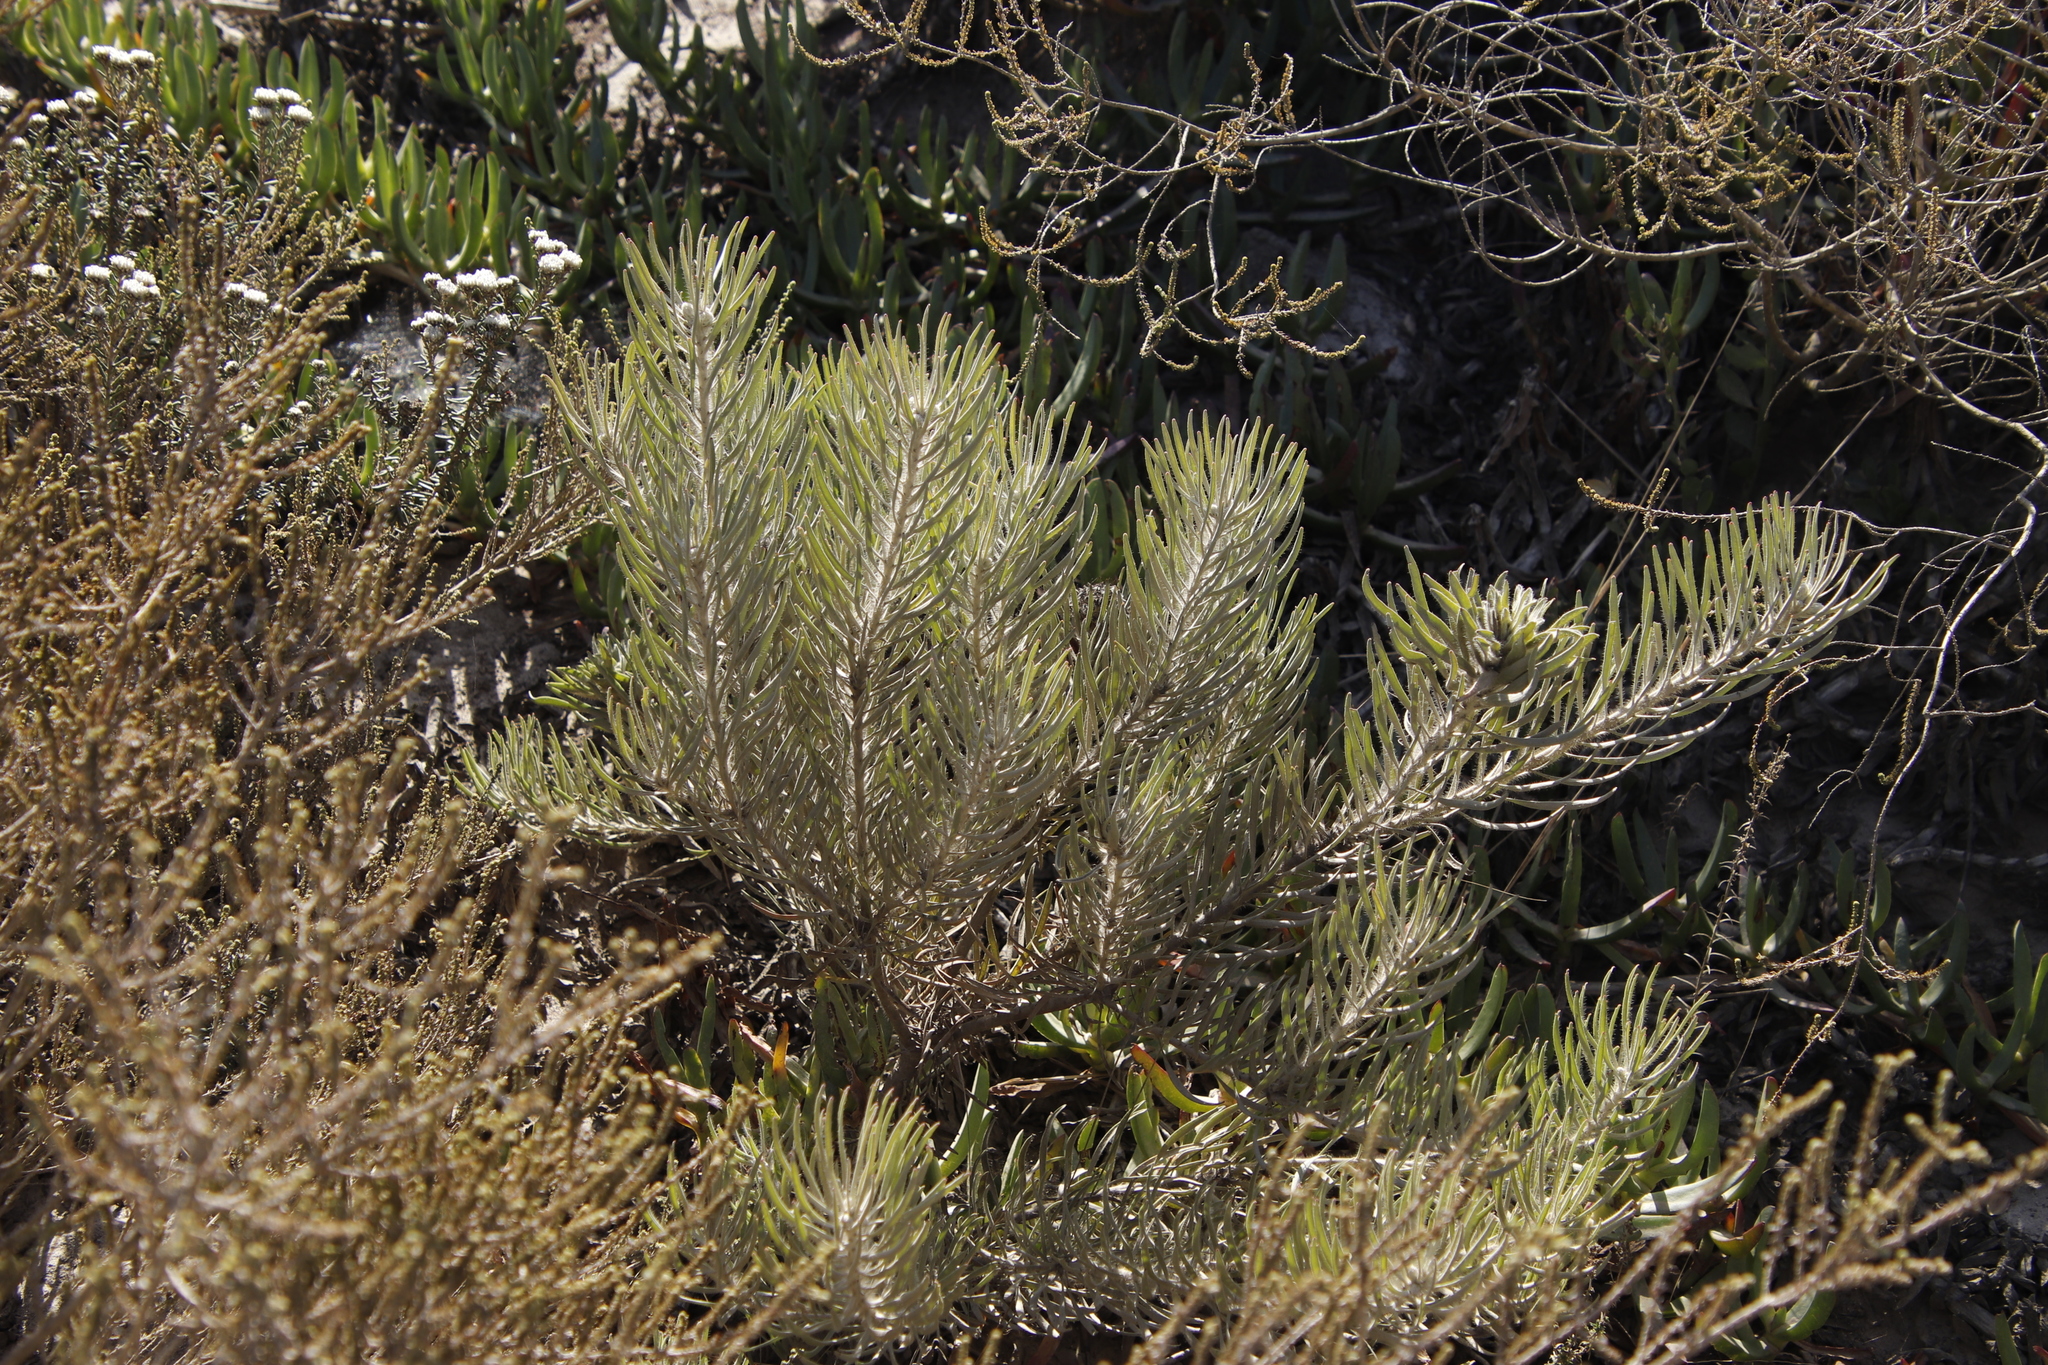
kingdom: Plantae
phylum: Tracheophyta
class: Magnoliopsida
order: Proteales
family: Proteaceae
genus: Leucospermum
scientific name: Leucospermum tomentosum
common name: Saldanha pincushion
